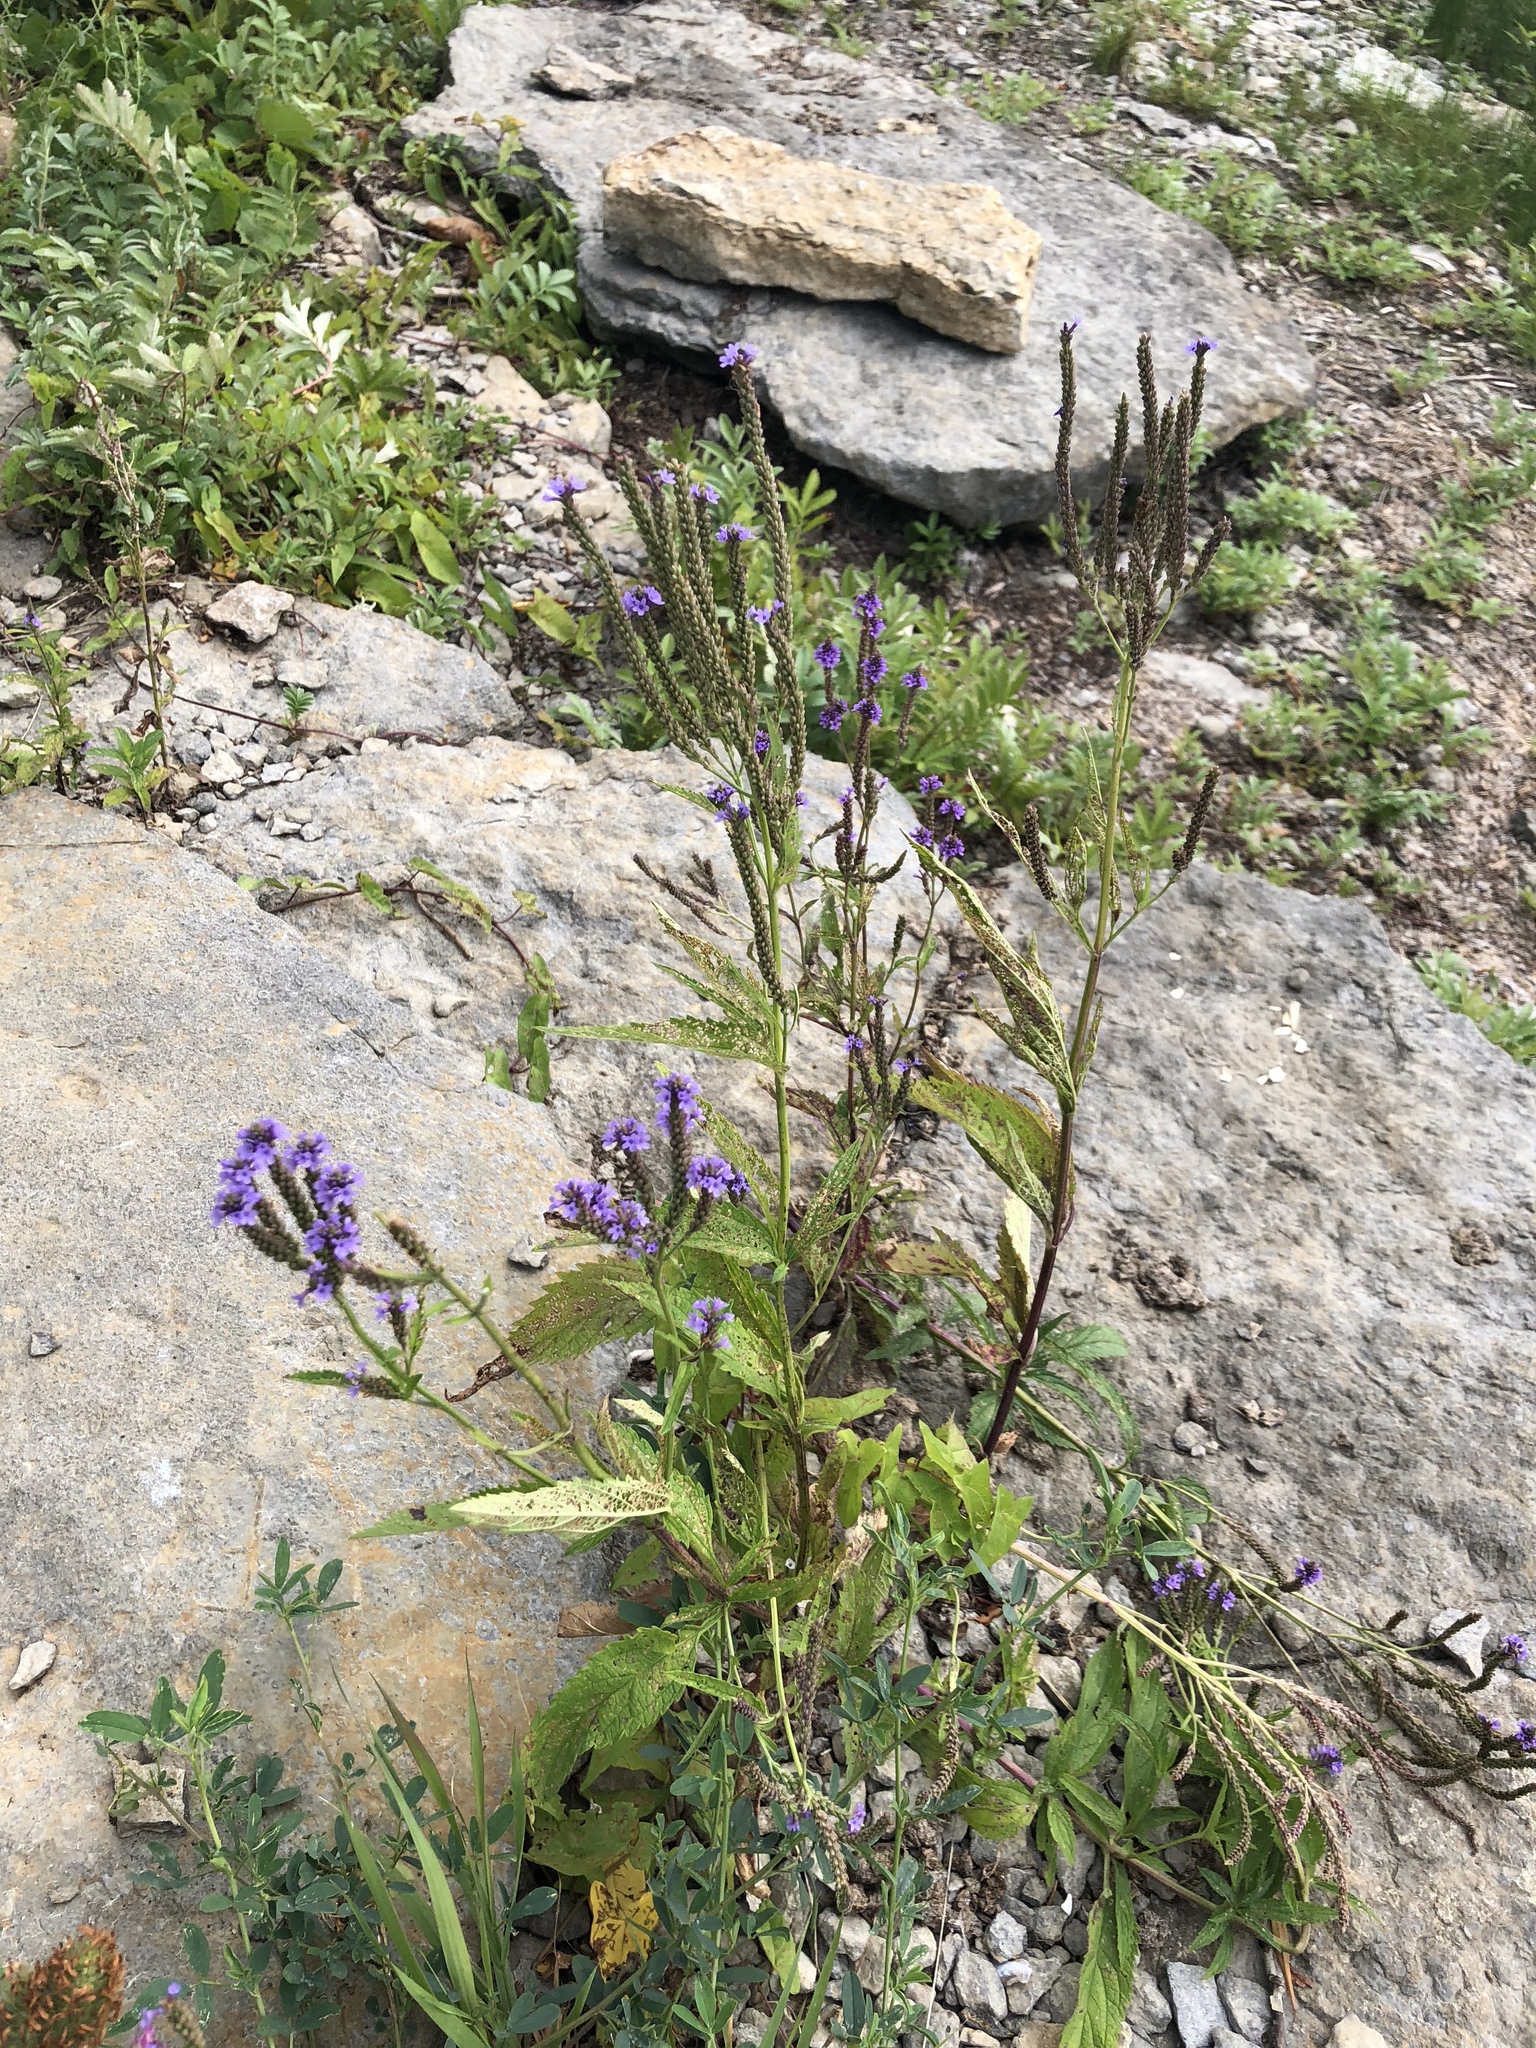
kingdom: Plantae
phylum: Tracheophyta
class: Magnoliopsida
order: Lamiales
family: Verbenaceae
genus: Verbena
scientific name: Verbena hastata
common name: American blue vervain
